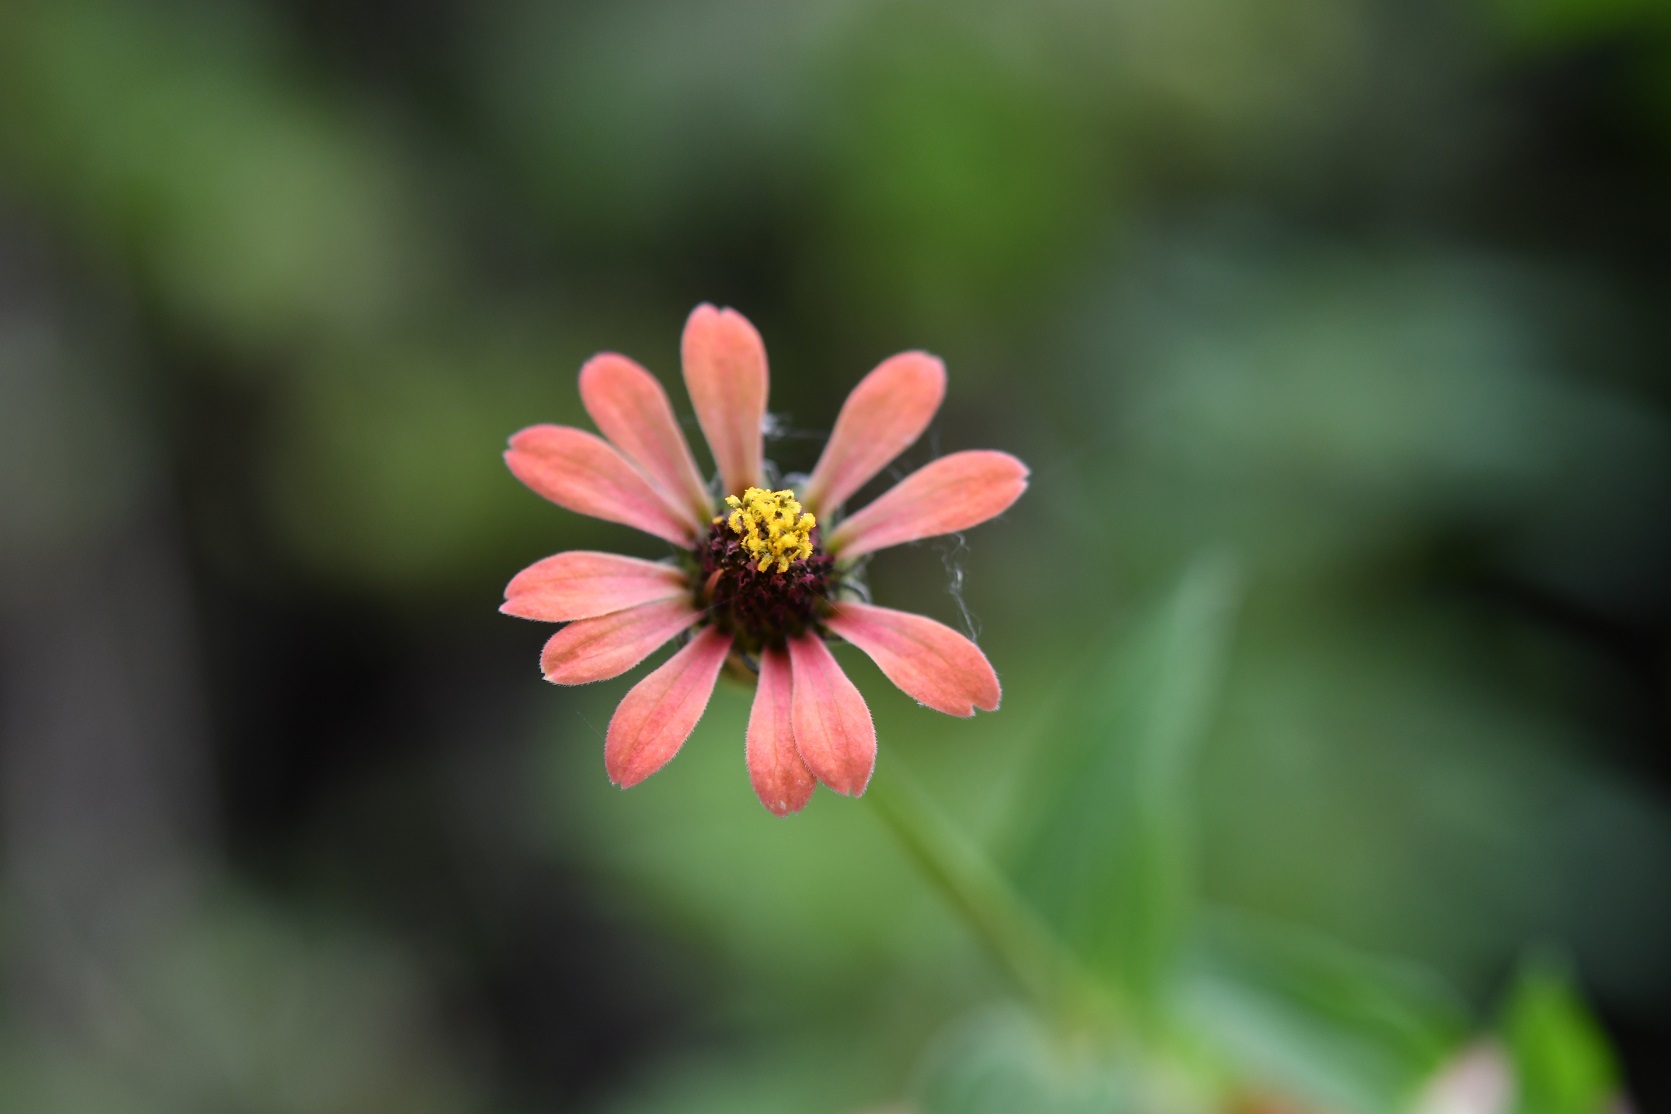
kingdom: Plantae
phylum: Tracheophyta
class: Magnoliopsida
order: Asterales
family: Asteraceae
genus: Zinnia
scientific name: Zinnia peruviana
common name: Peruvian zinnia
